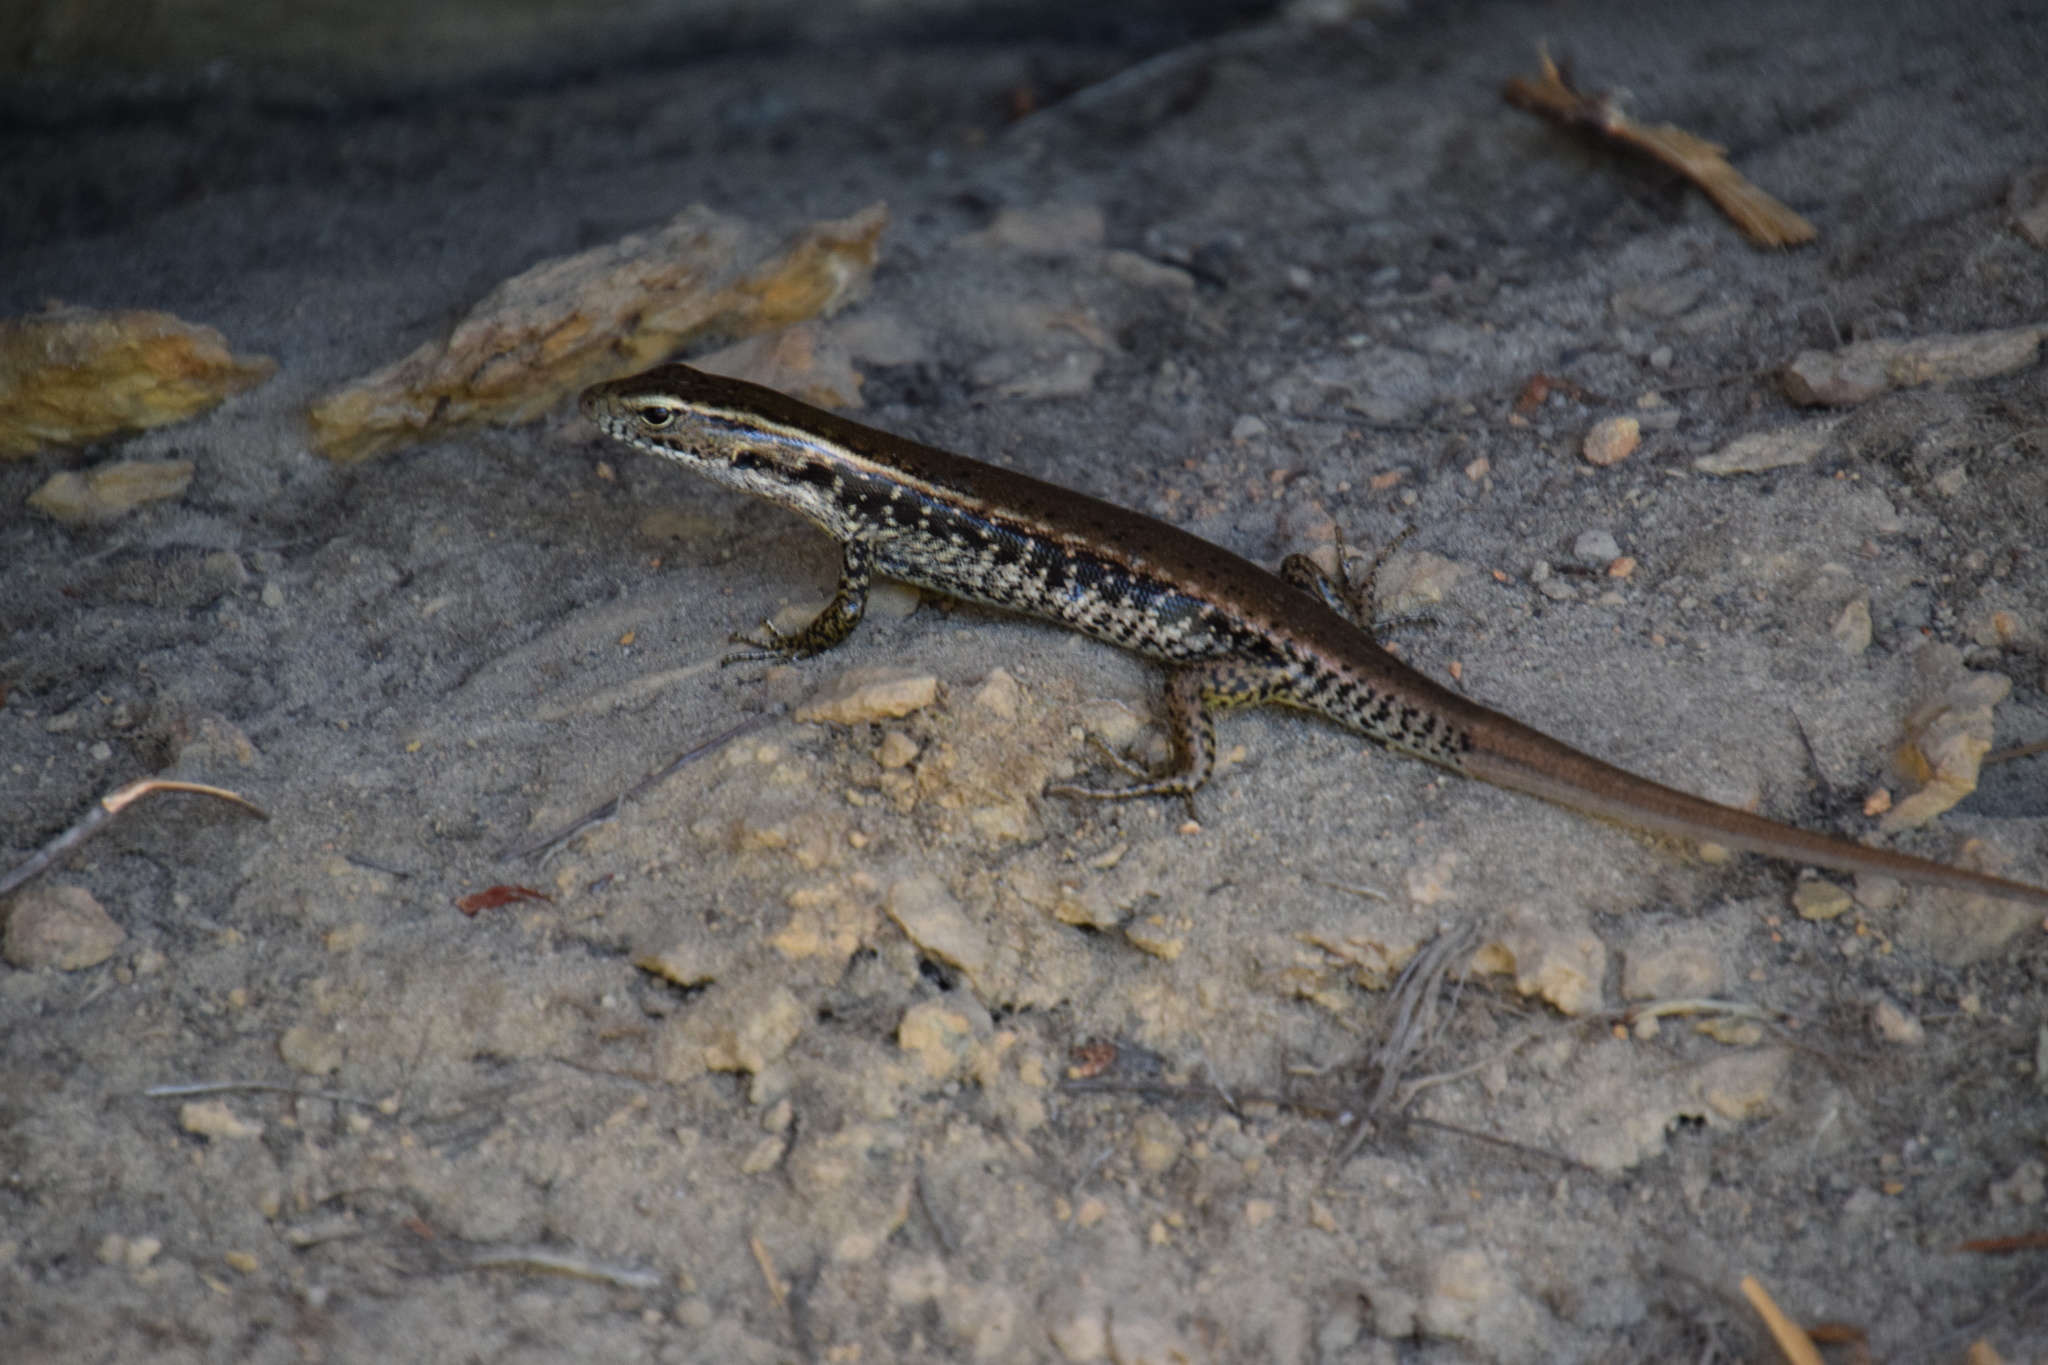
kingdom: Animalia
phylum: Chordata
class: Squamata
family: Scincidae
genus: Eulamprus
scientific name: Eulamprus quoyii
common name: Eastern water skink
